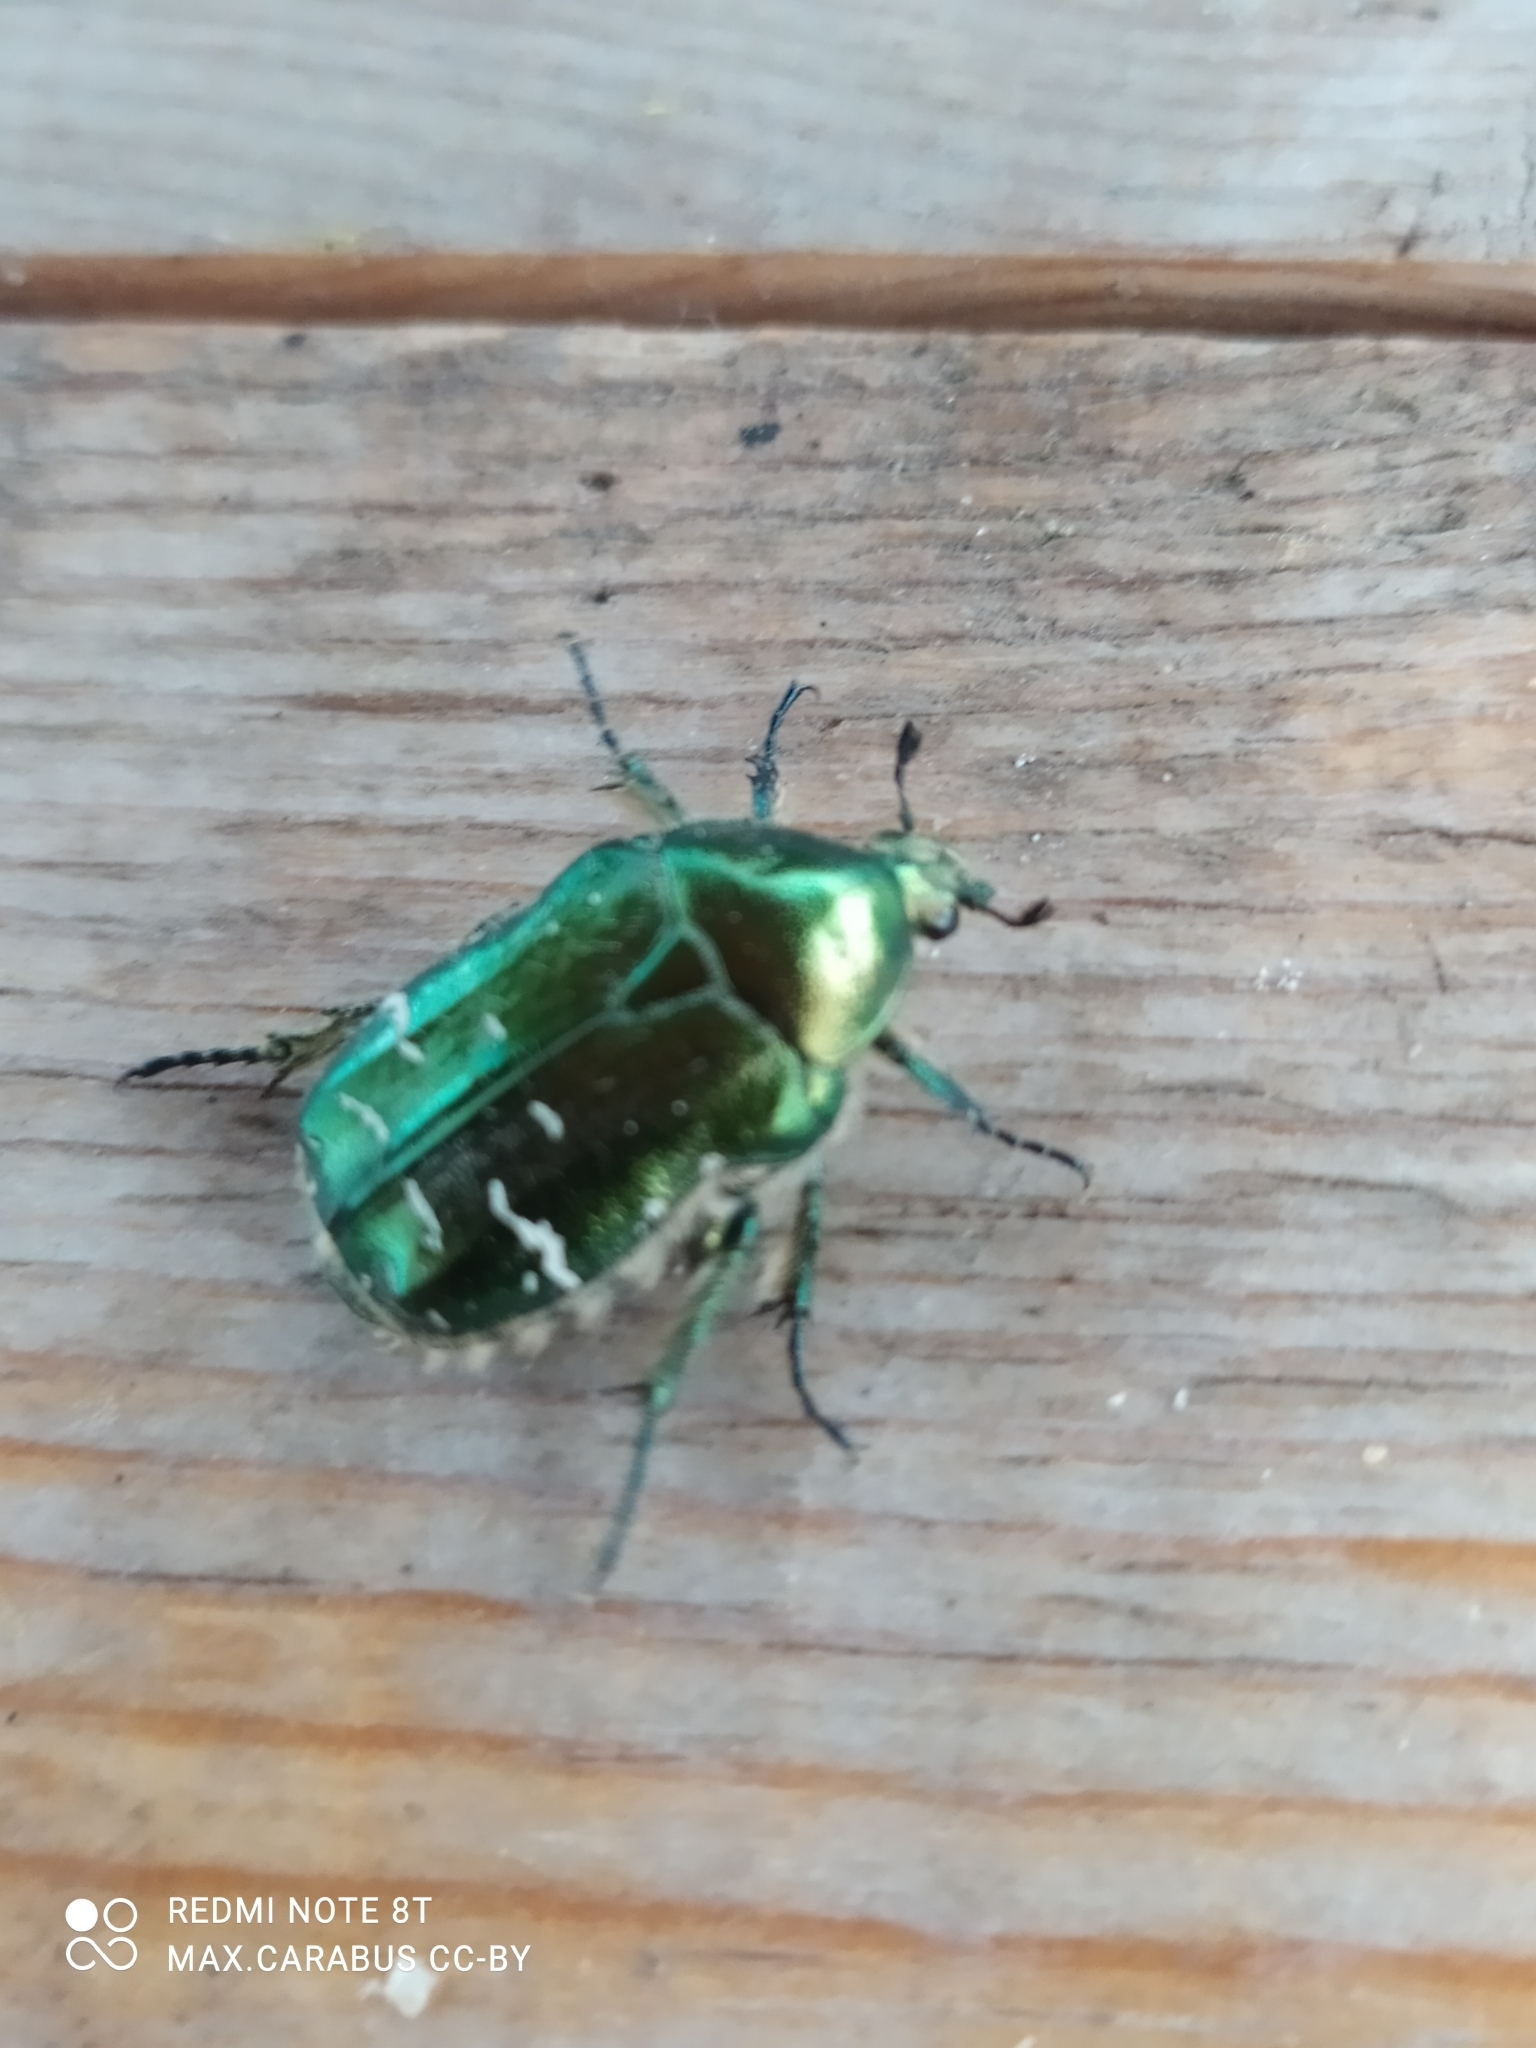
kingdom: Animalia
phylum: Arthropoda
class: Insecta
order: Coleoptera
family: Scarabaeidae
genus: Cetonia
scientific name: Cetonia aurata
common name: Rose chafer
